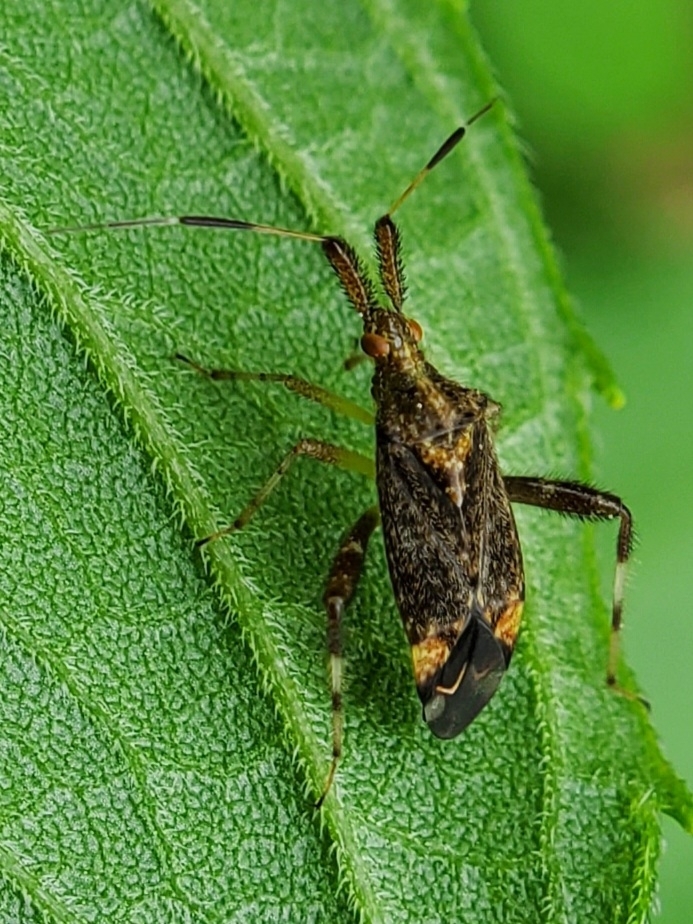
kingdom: Animalia
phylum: Arthropoda
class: Insecta
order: Hemiptera
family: Miridae
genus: Neurocolpus
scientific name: Neurocolpus nubilus
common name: Clouded plant bug
